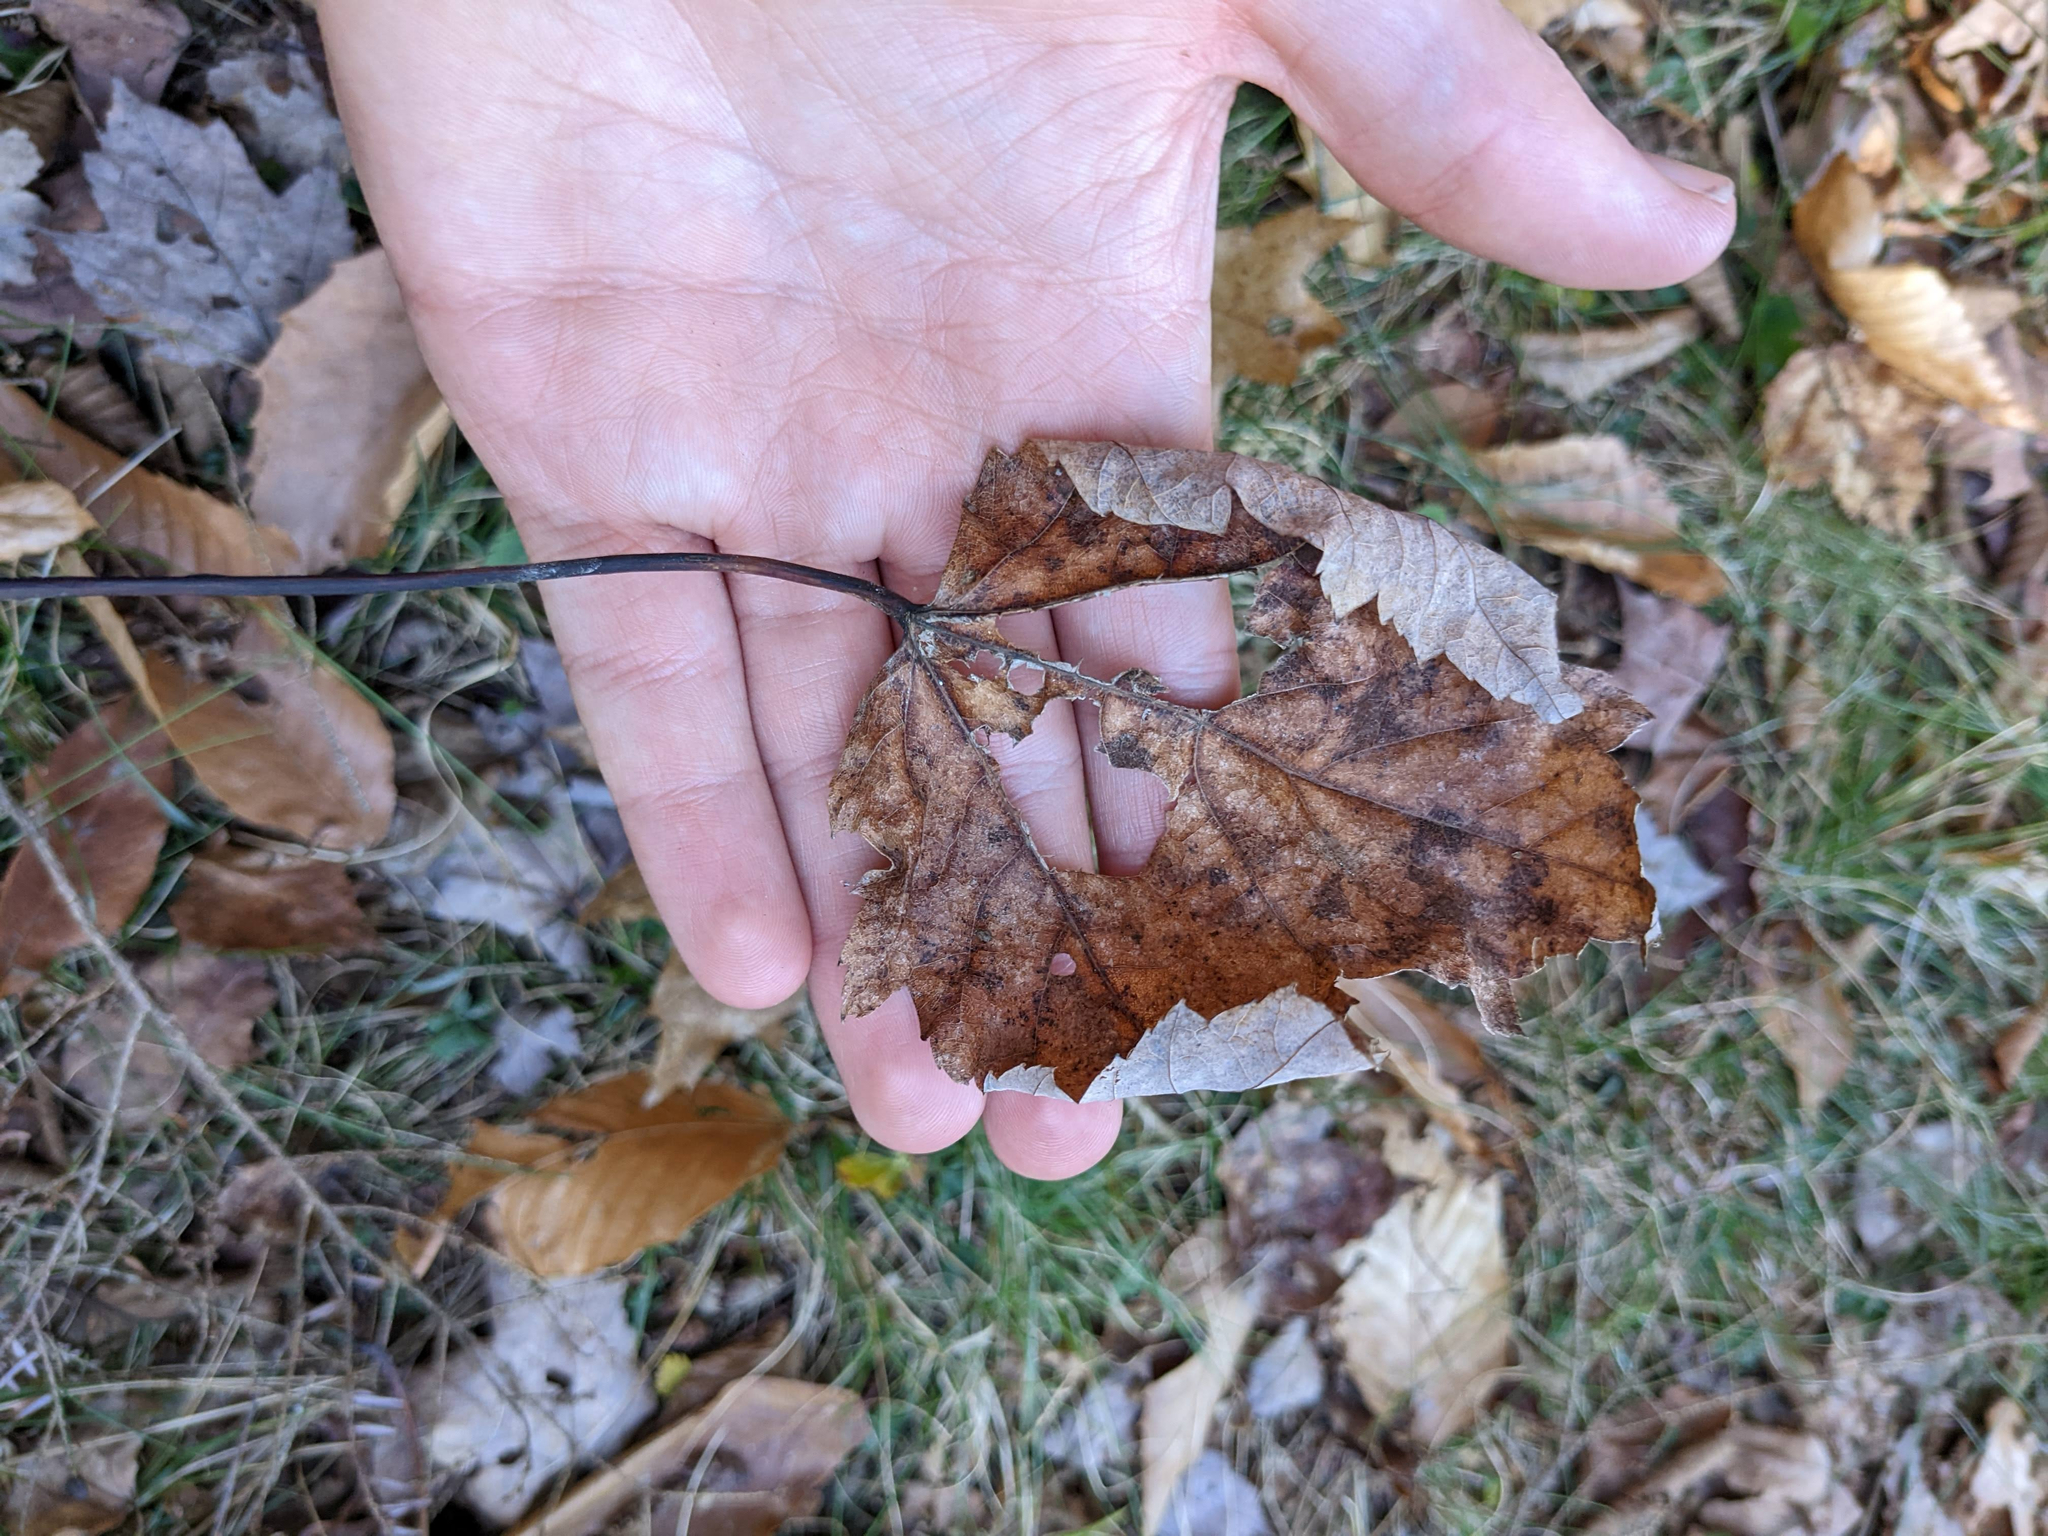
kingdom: Plantae
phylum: Tracheophyta
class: Magnoliopsida
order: Sapindales
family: Sapindaceae
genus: Acer
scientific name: Acer rubrum
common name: Red maple
